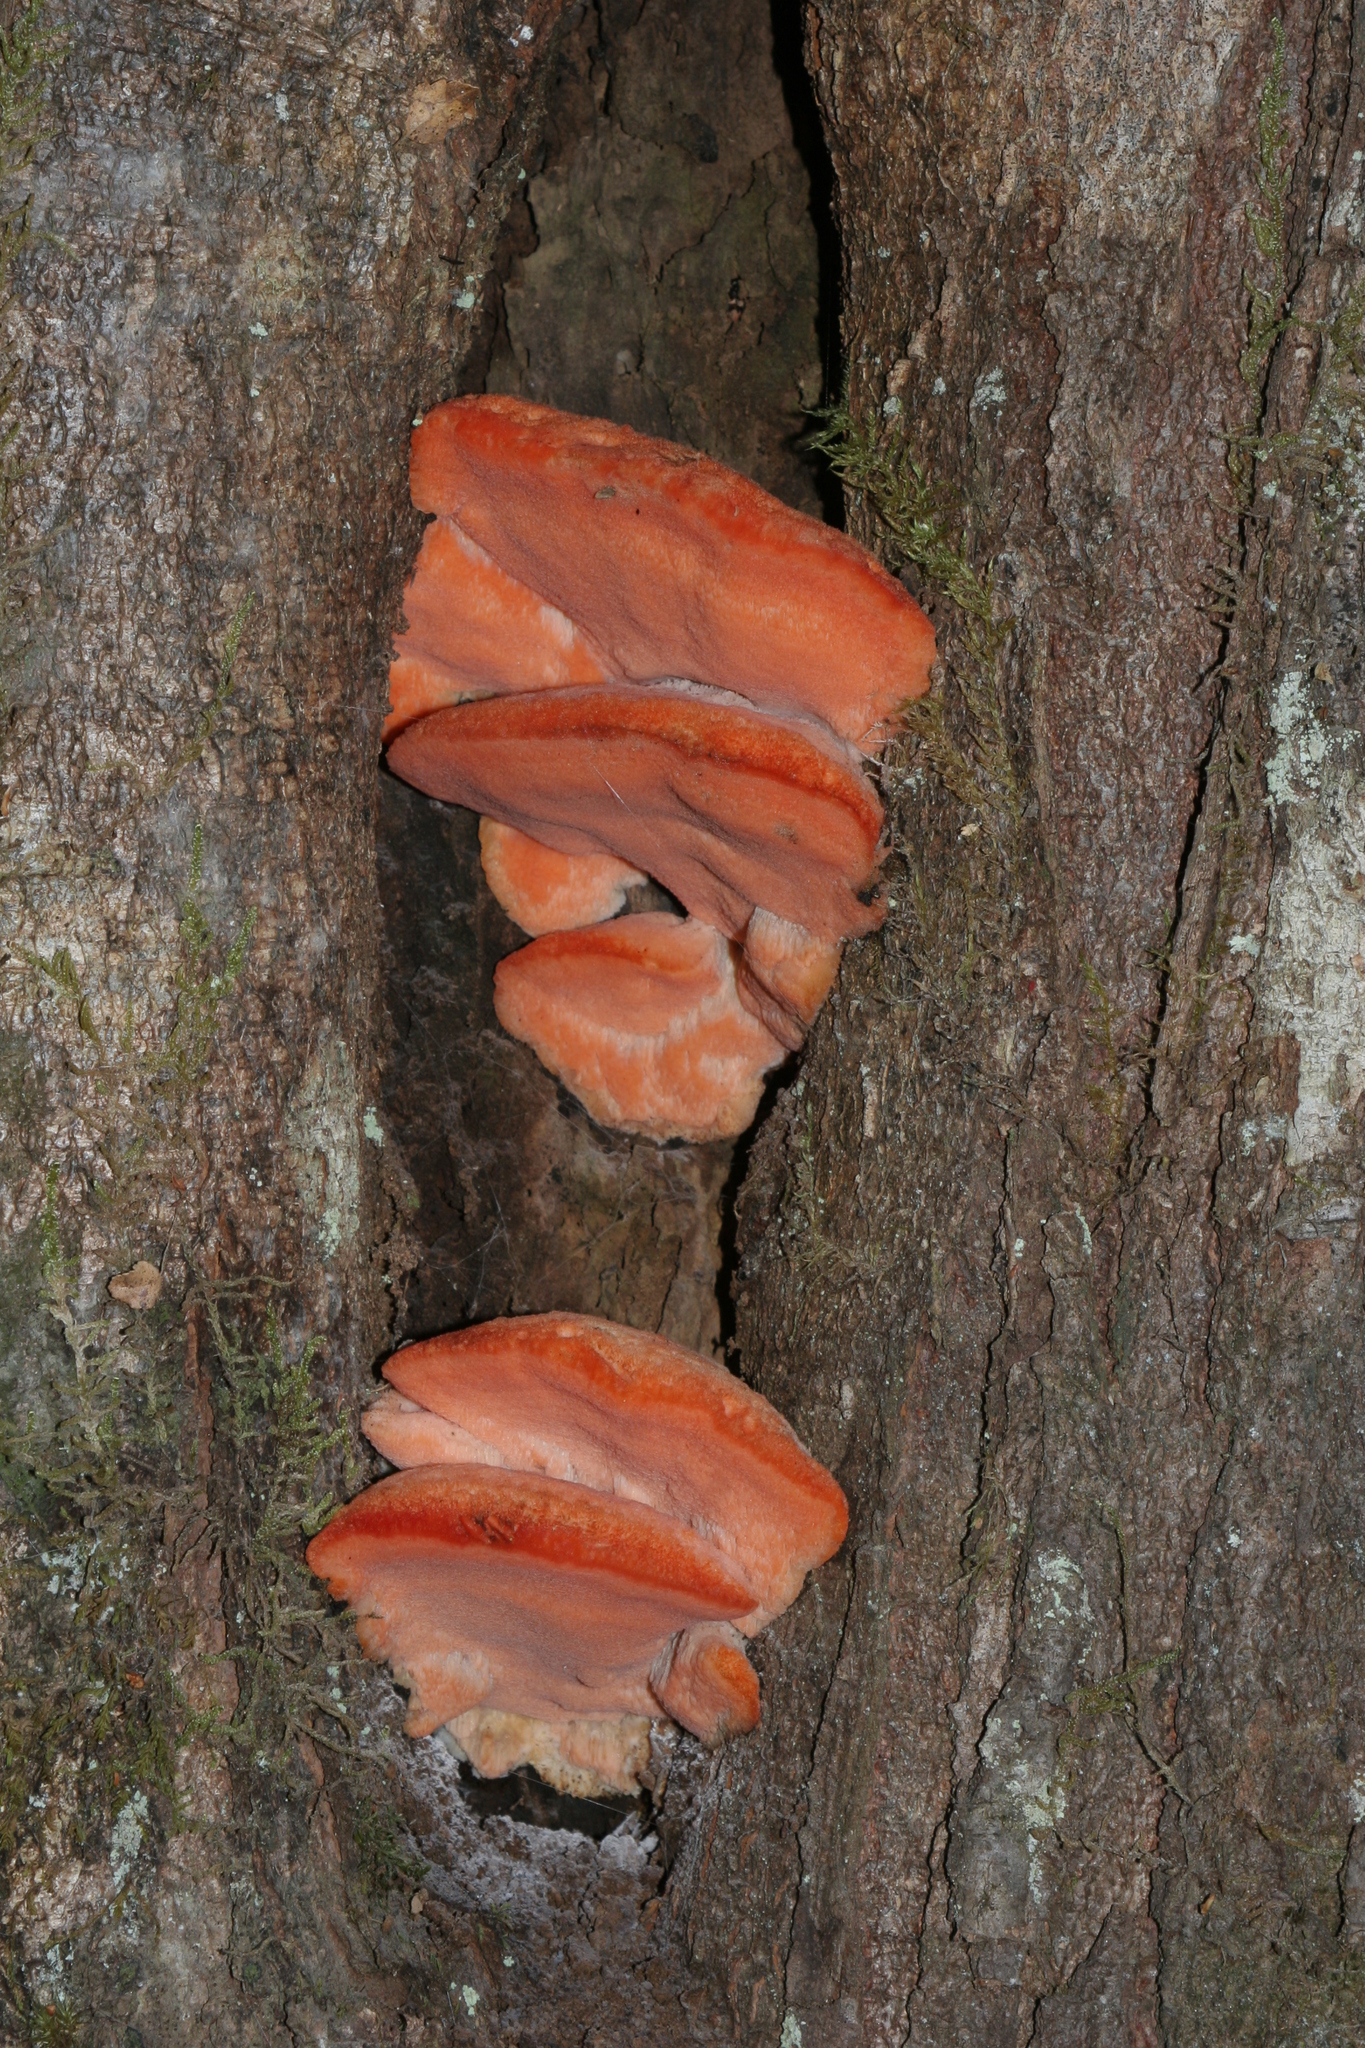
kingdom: Fungi
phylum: Basidiomycota
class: Agaricomycetes
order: Polyporales
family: Incrustoporiaceae
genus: Tyromyces
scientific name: Tyromyces pulcherrimus
